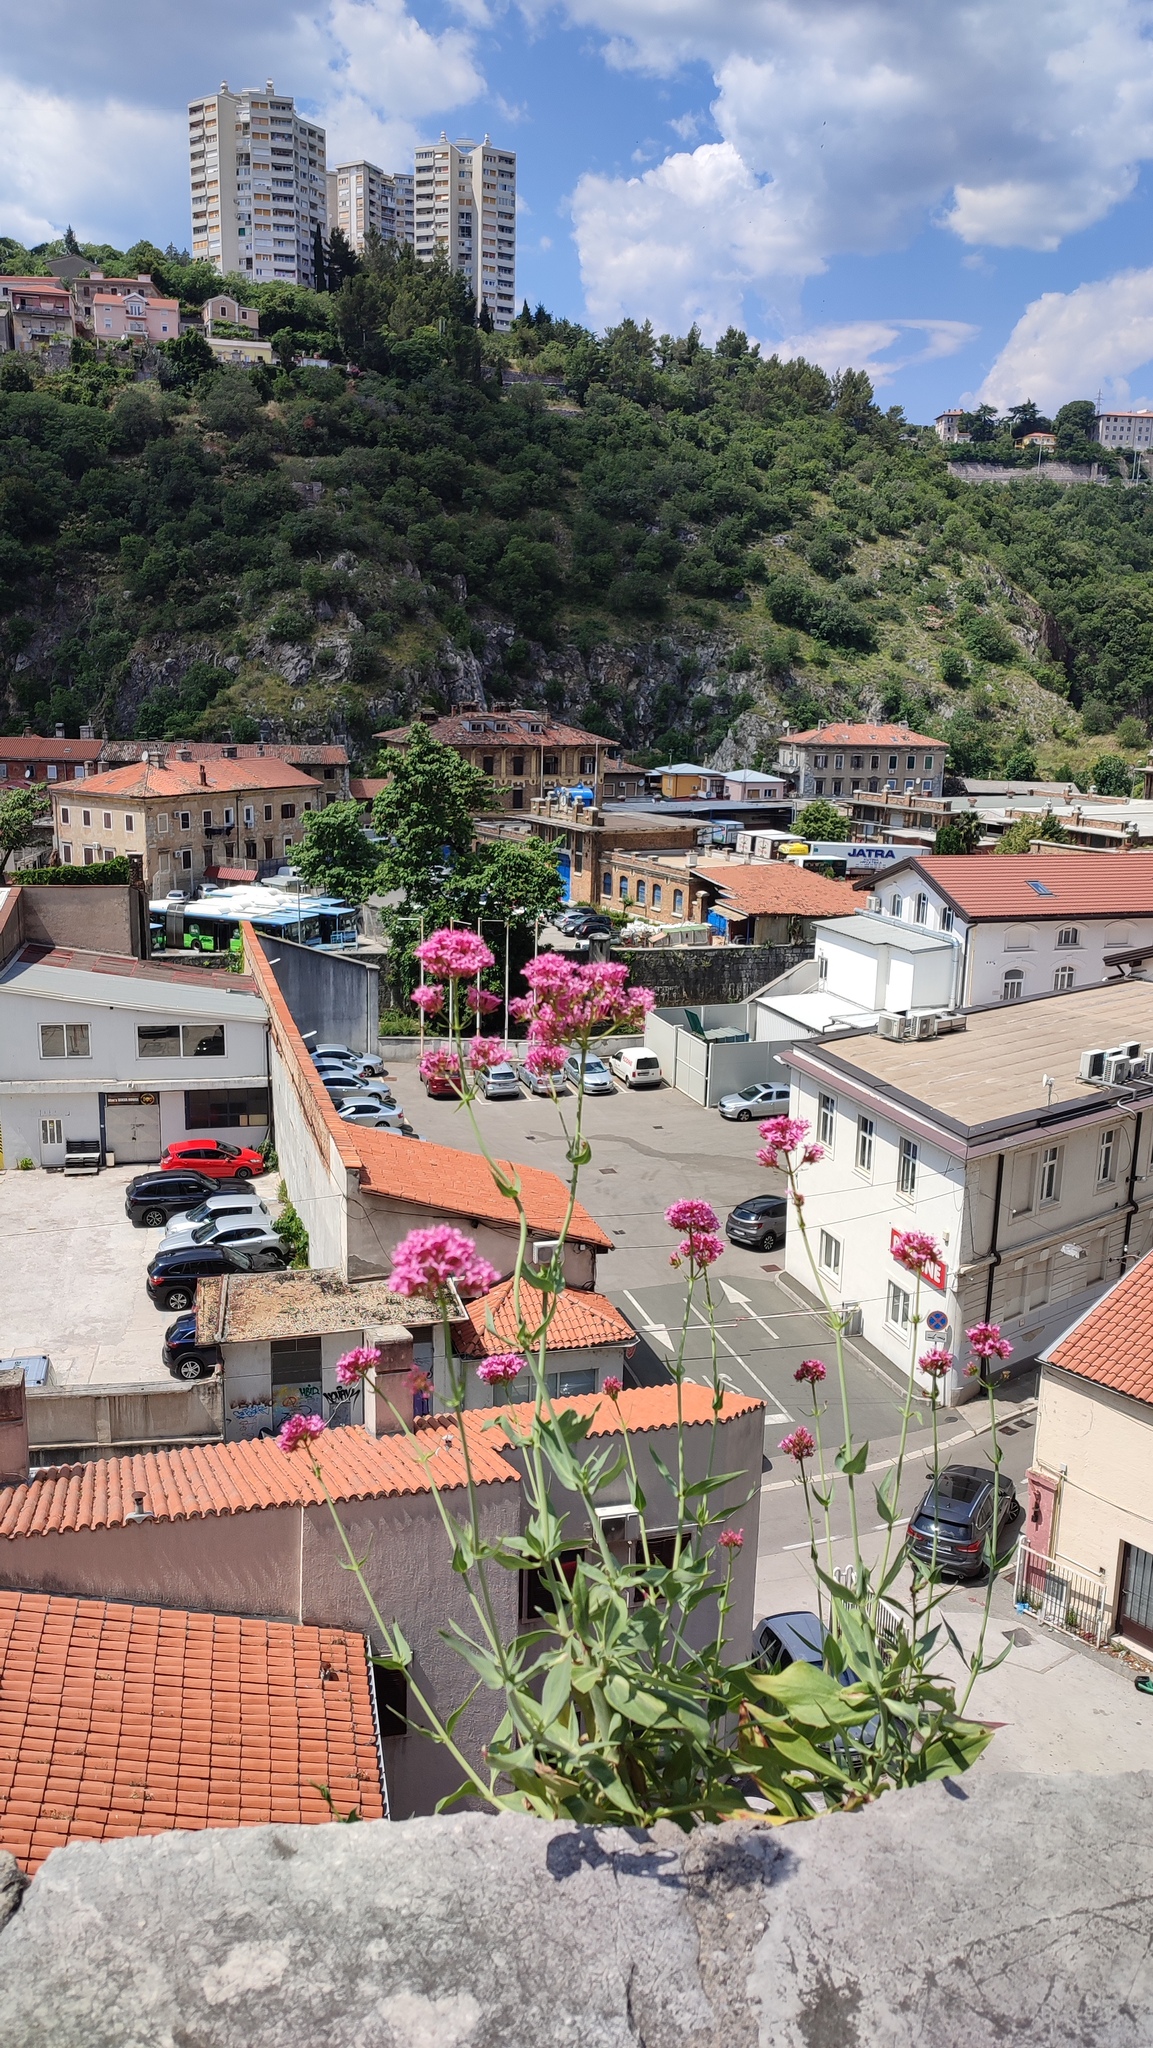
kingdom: Plantae
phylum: Tracheophyta
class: Magnoliopsida
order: Dipsacales
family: Caprifoliaceae
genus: Centranthus
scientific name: Centranthus ruber
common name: Red valerian
